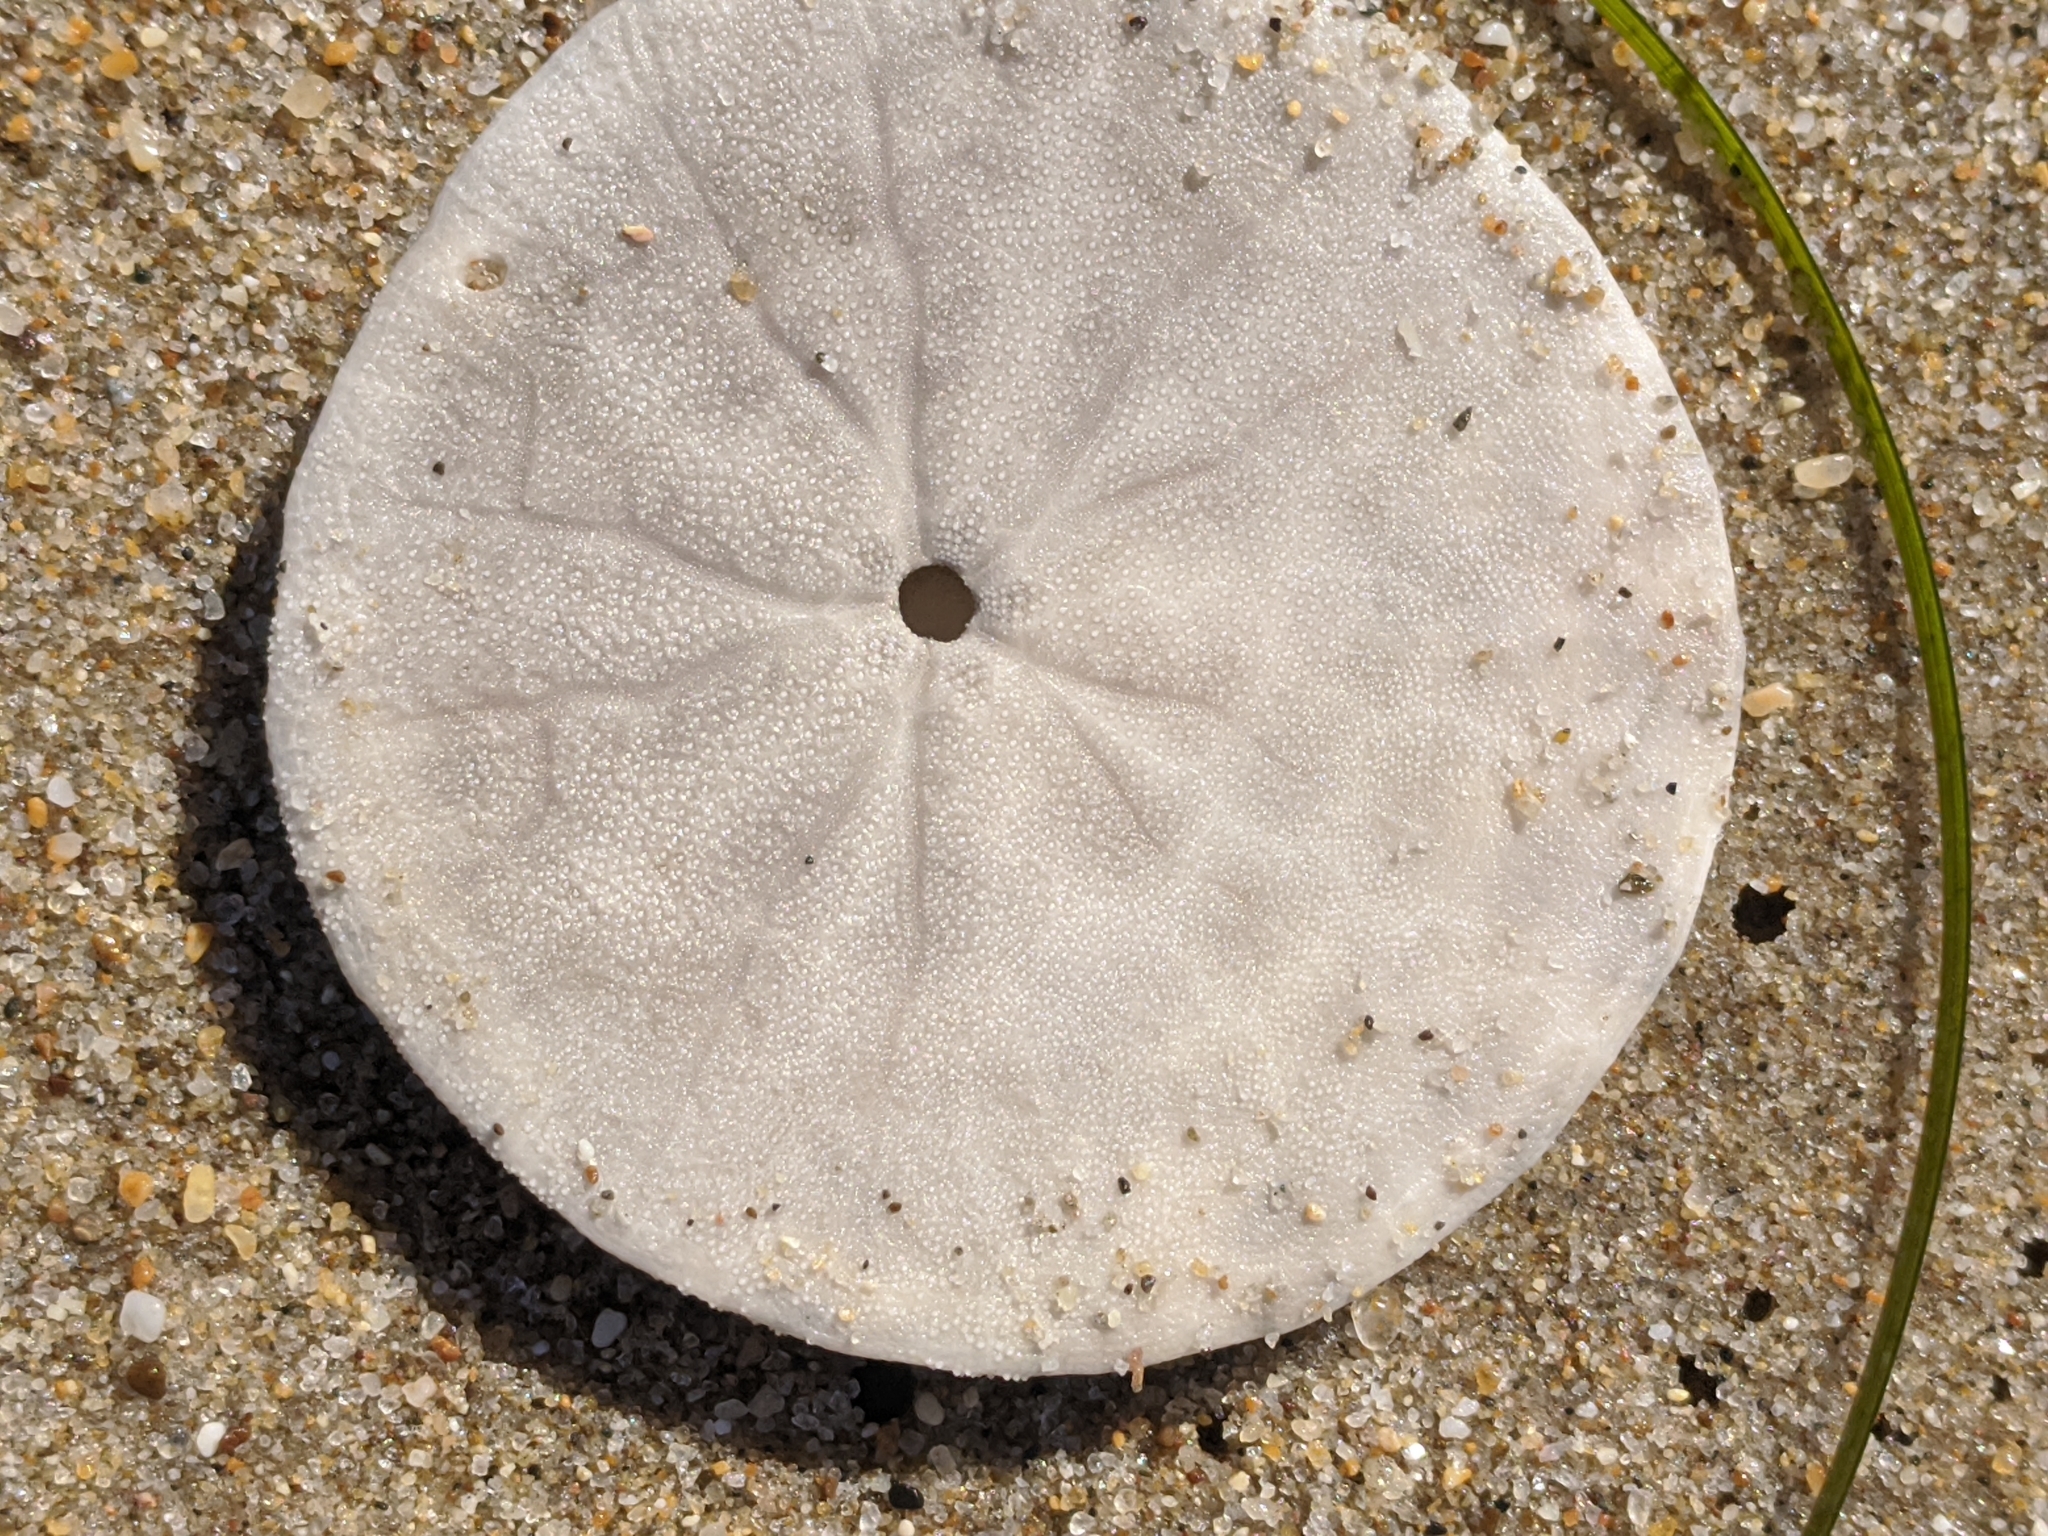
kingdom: Animalia
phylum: Echinodermata
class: Echinoidea
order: Echinolampadacea
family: Dendrasteridae
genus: Dendraster
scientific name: Dendraster excentricus
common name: Eccentric sand dollar sea urchin
